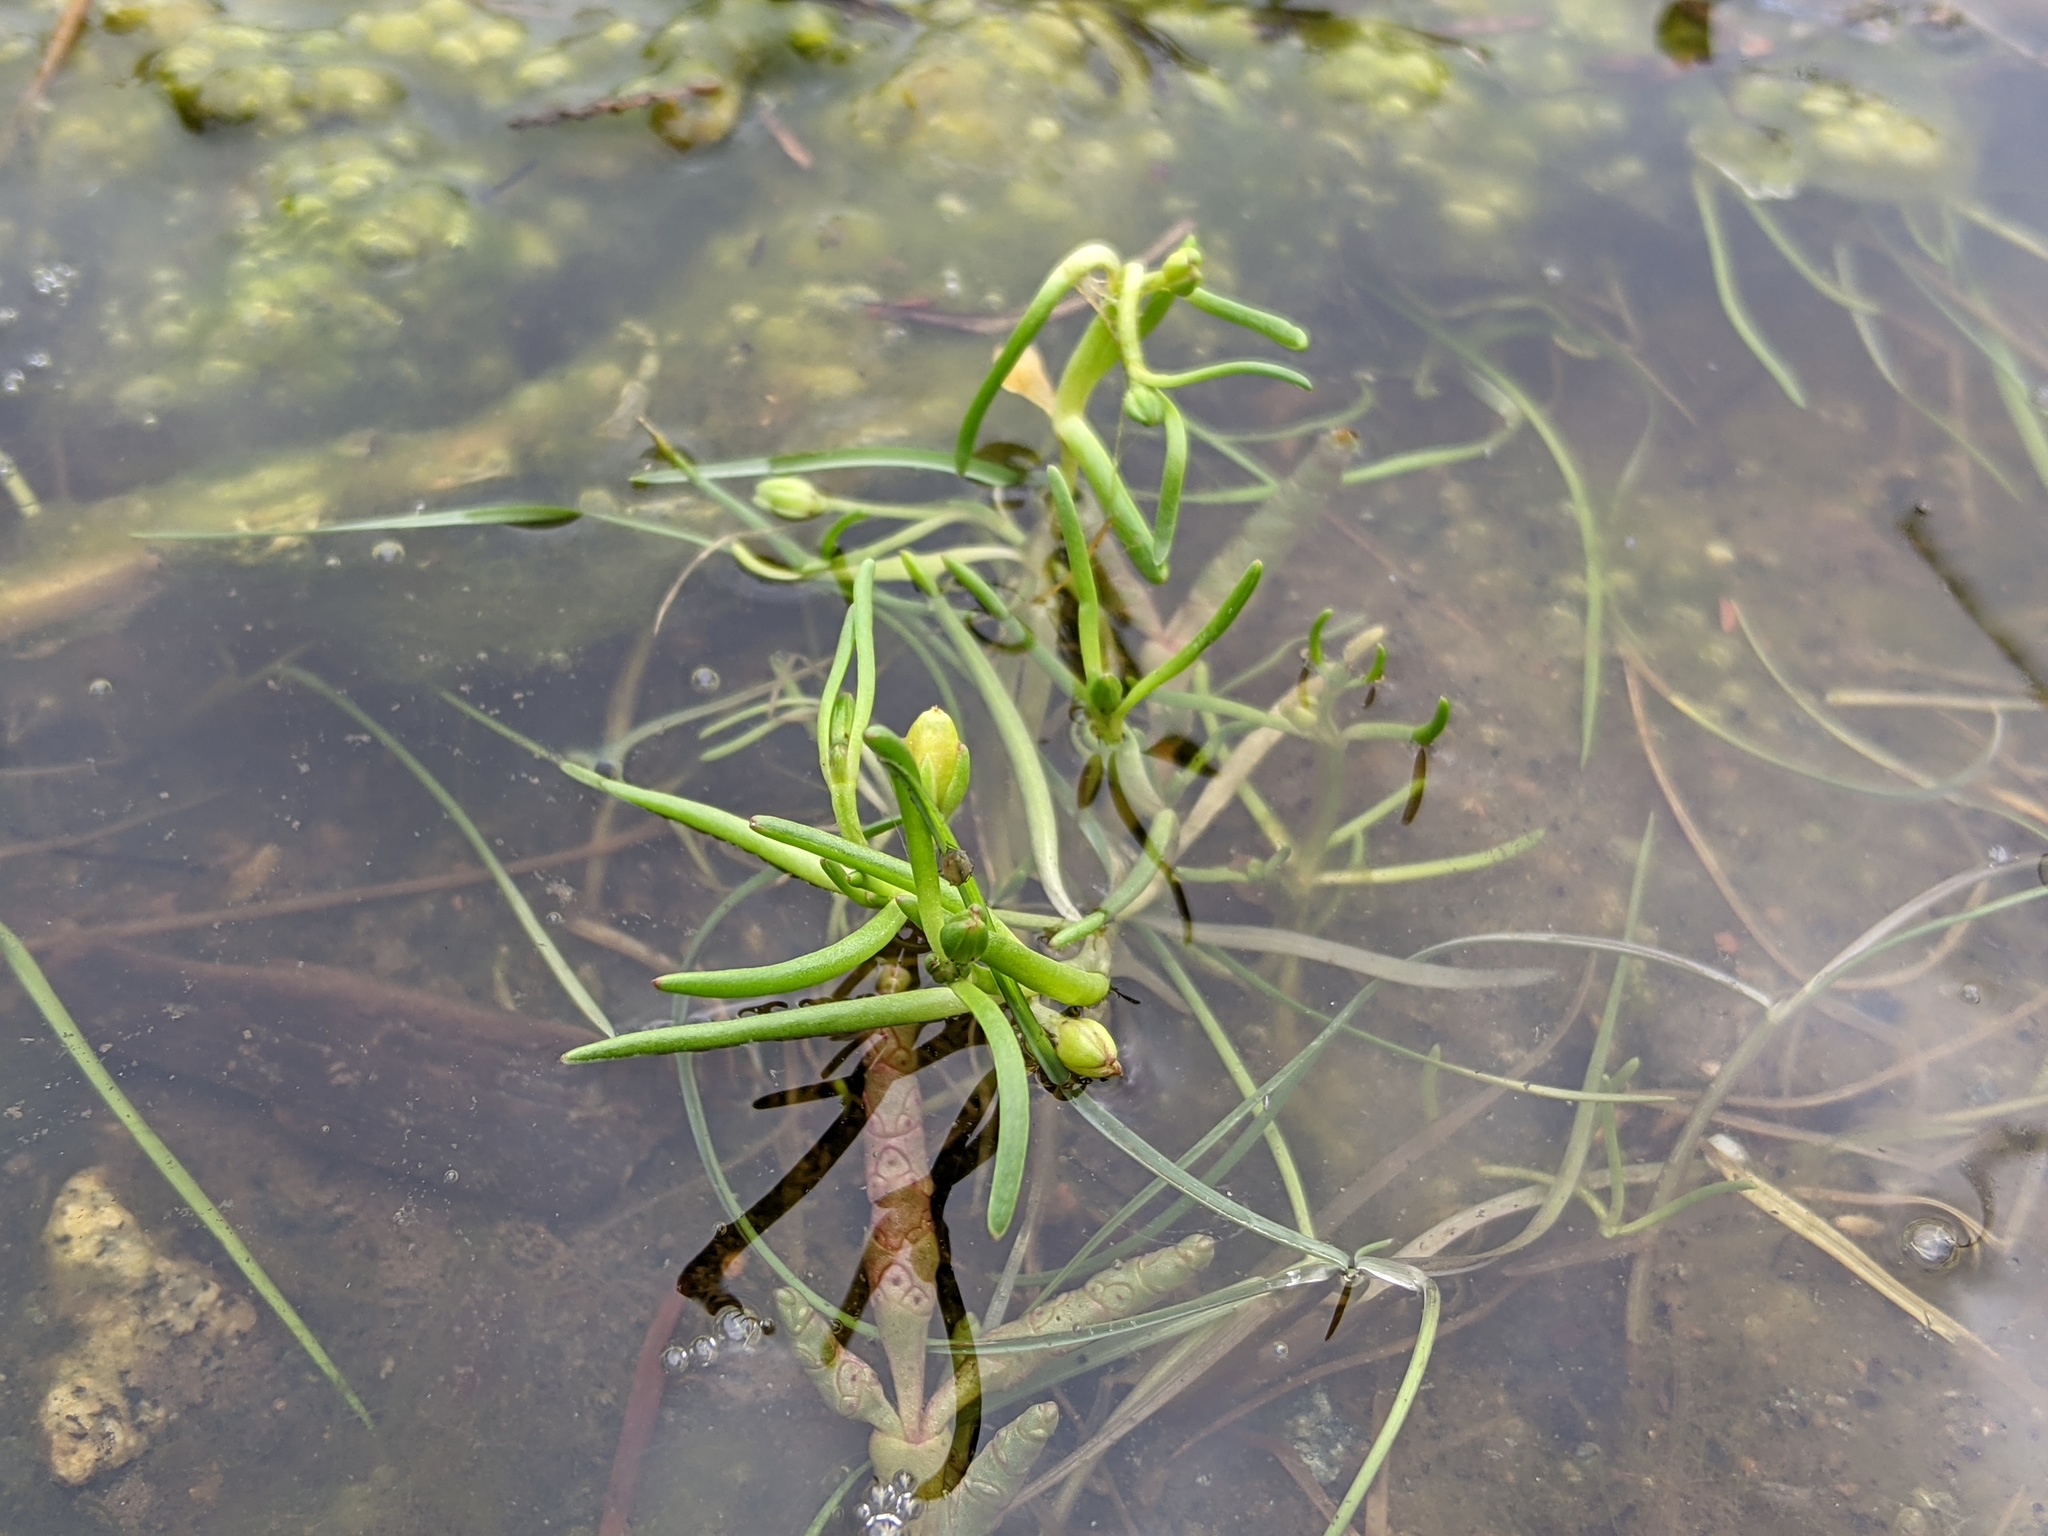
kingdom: Plantae
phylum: Tracheophyta
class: Magnoliopsida
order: Caryophyllales
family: Caryophyllaceae
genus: Spergularia
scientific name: Spergularia canadensis
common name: Canada sand-spurrey
